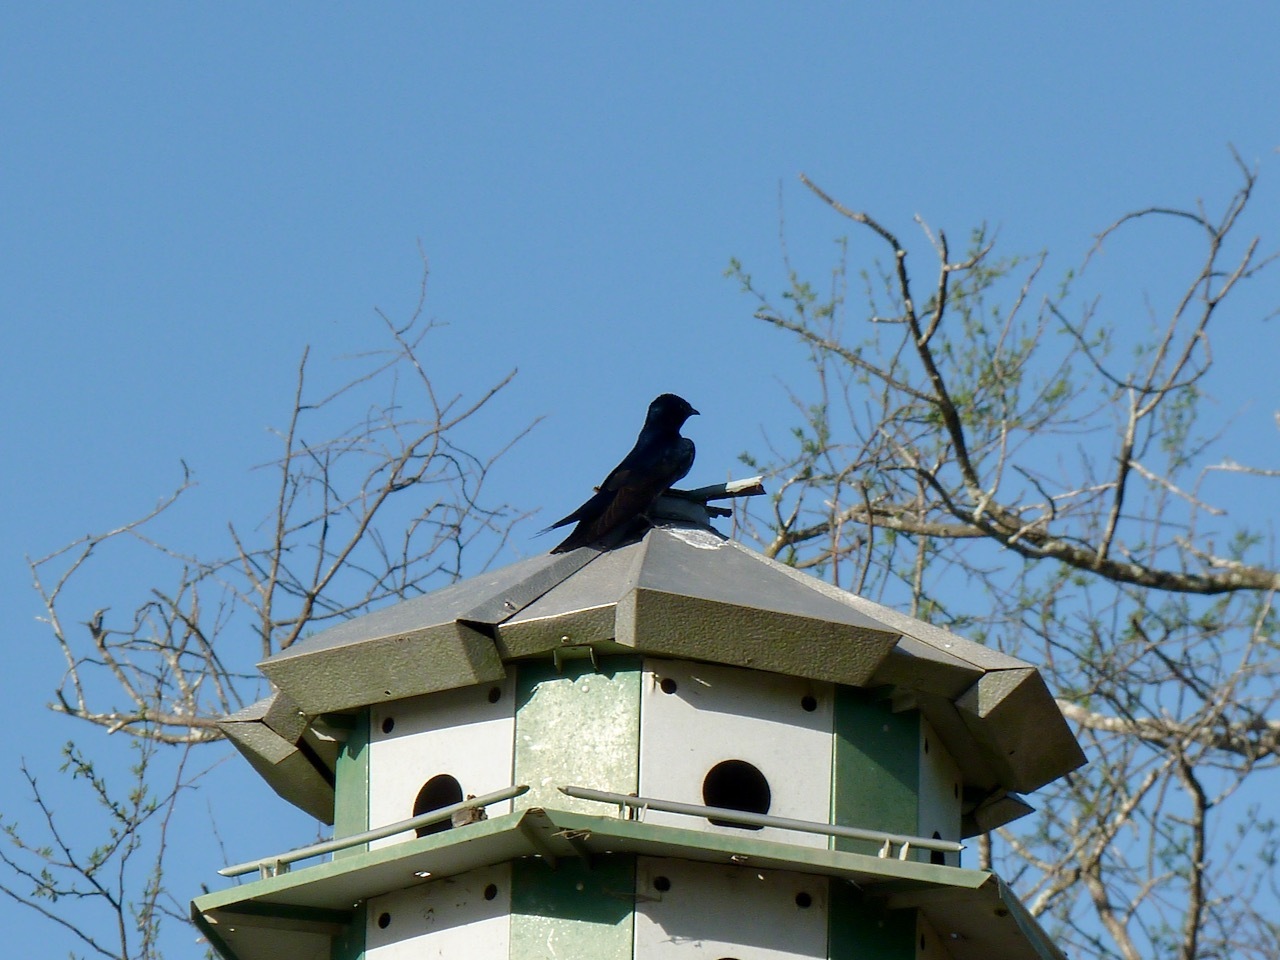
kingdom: Animalia
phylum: Chordata
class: Aves
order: Passeriformes
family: Hirundinidae
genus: Progne
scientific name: Progne subis
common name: Purple martin
